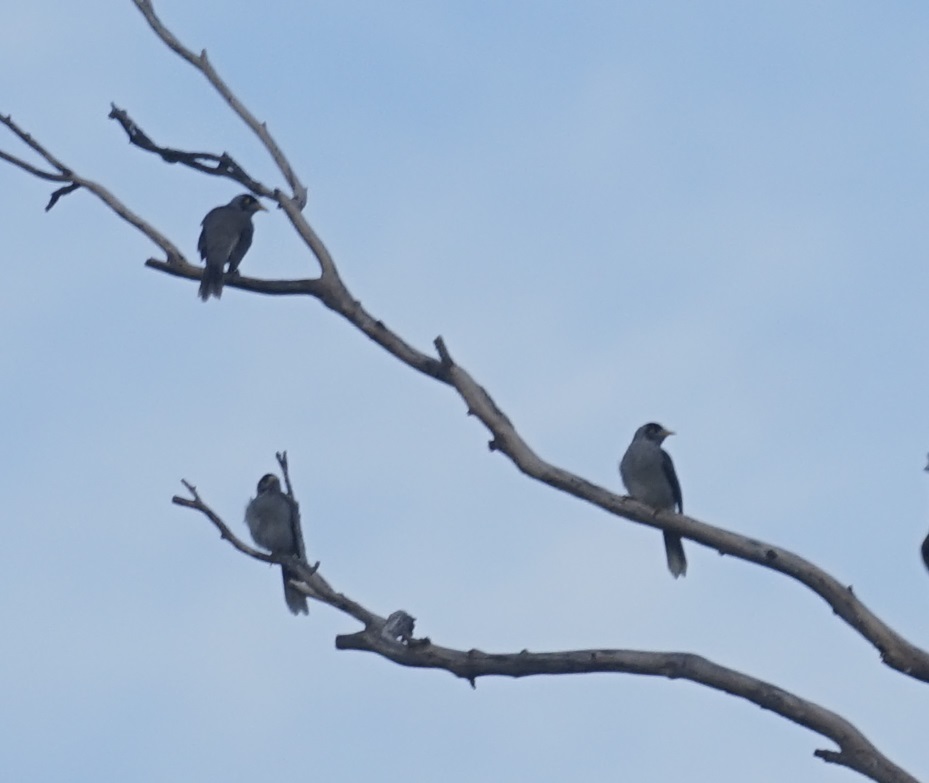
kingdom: Animalia
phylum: Chordata
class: Aves
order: Passeriformes
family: Meliphagidae
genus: Manorina
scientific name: Manorina melanocephala
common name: Noisy miner
